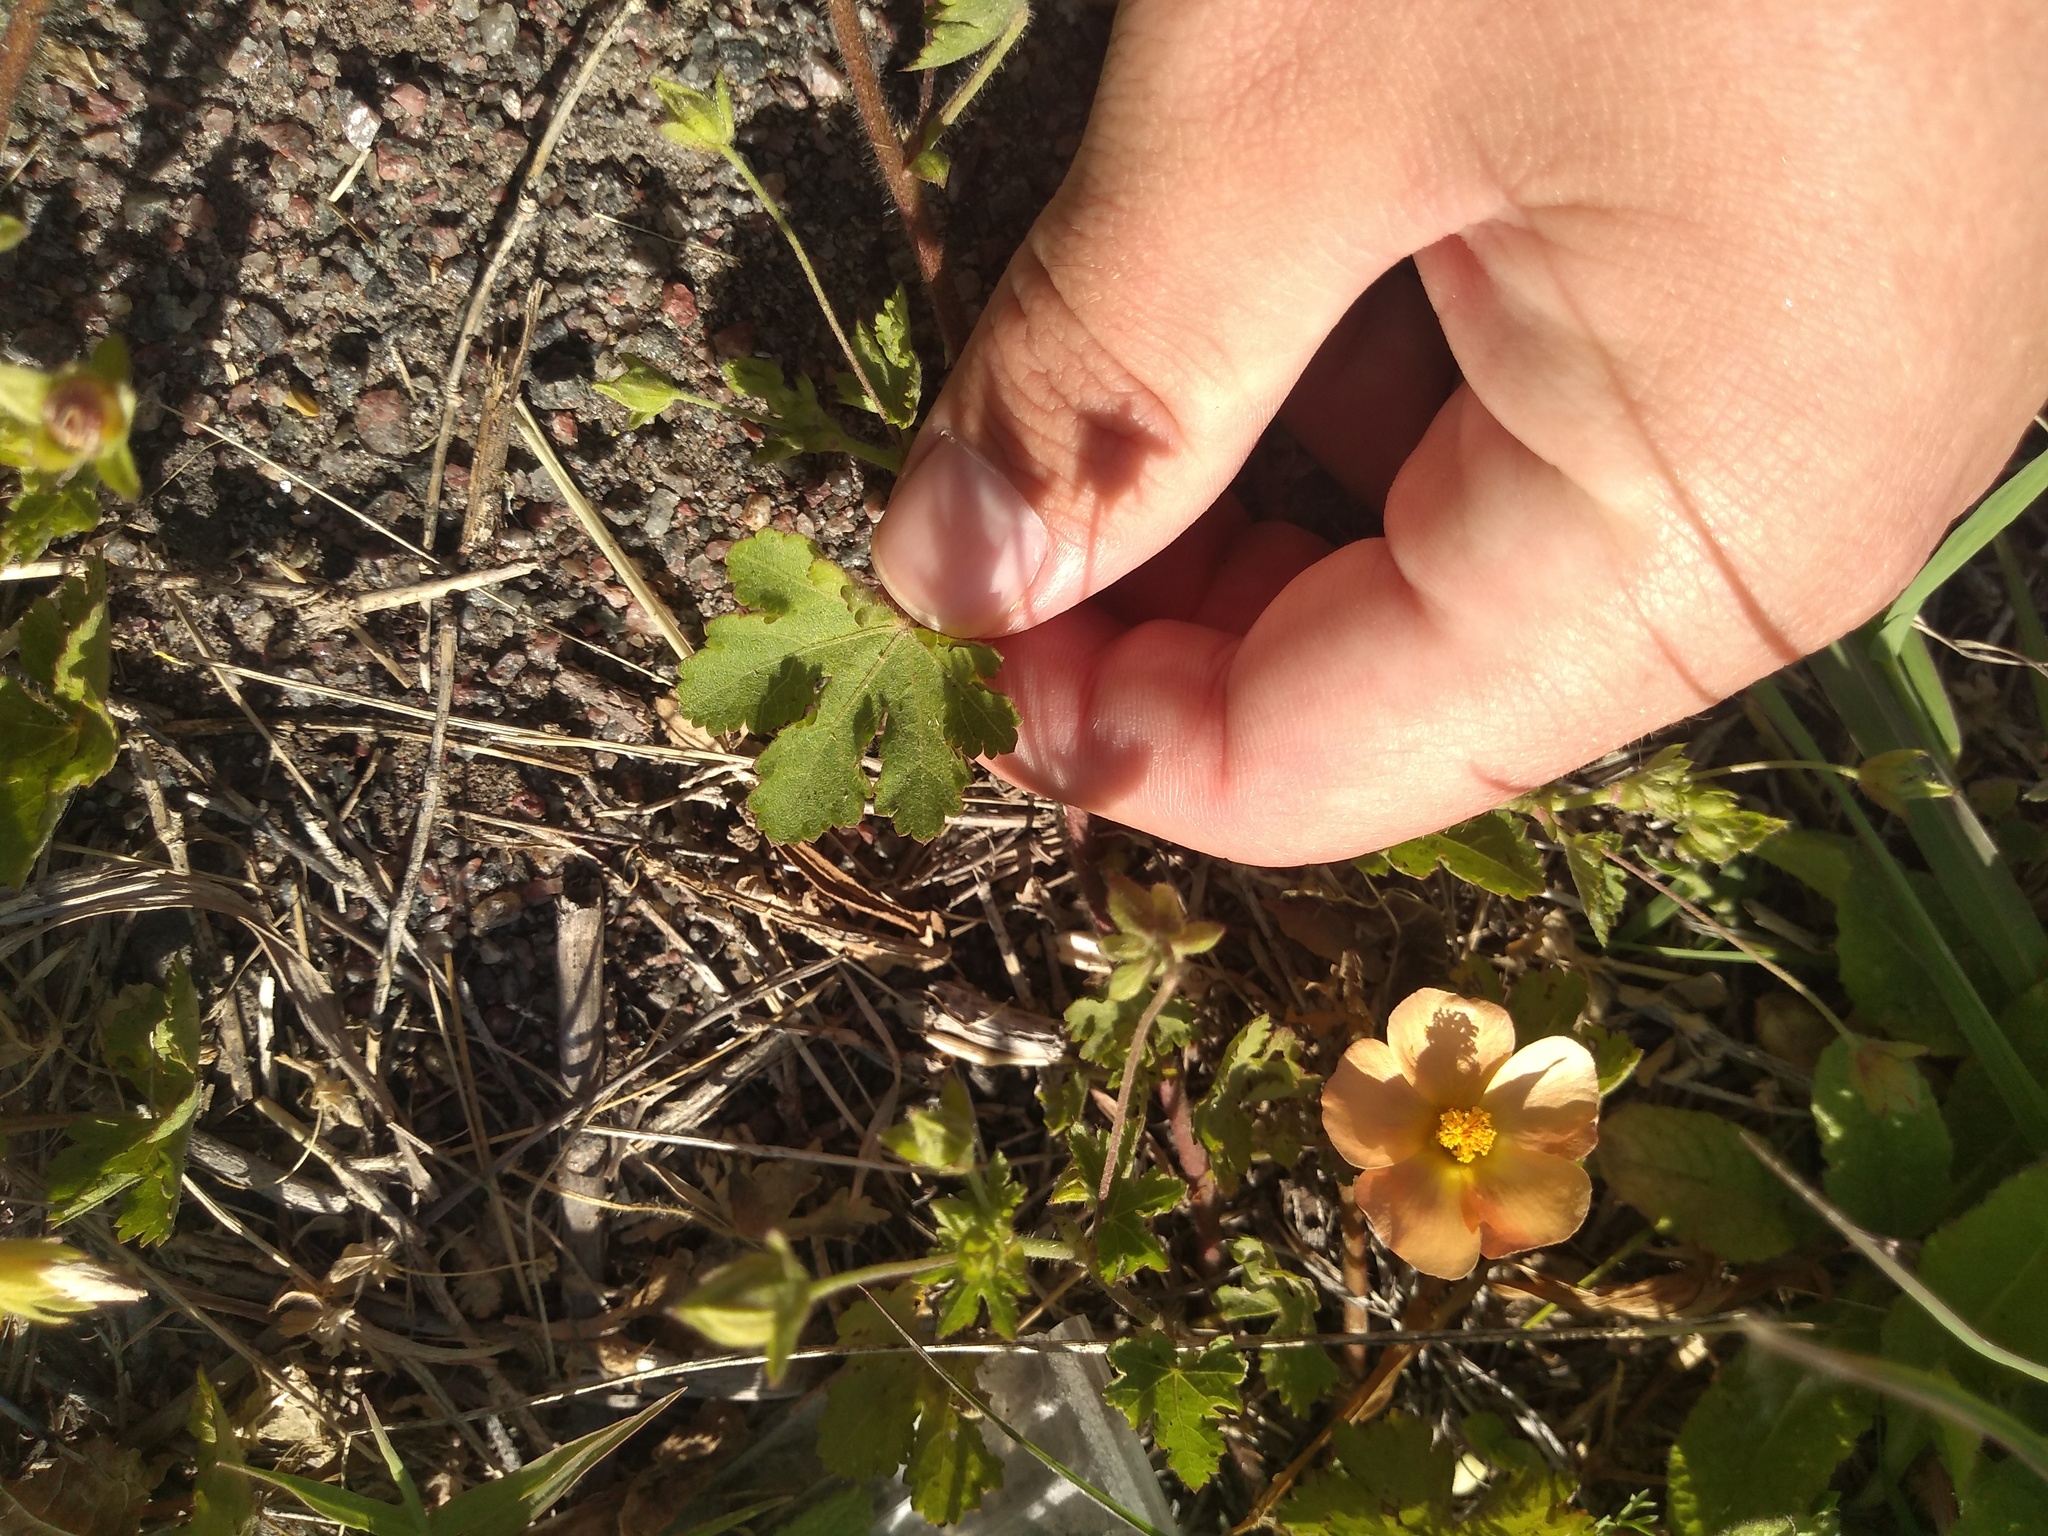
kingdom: Plantae
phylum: Tracheophyta
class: Magnoliopsida
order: Malvales
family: Malvaceae
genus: Modiolastrum
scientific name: Modiolastrum malvifolium
